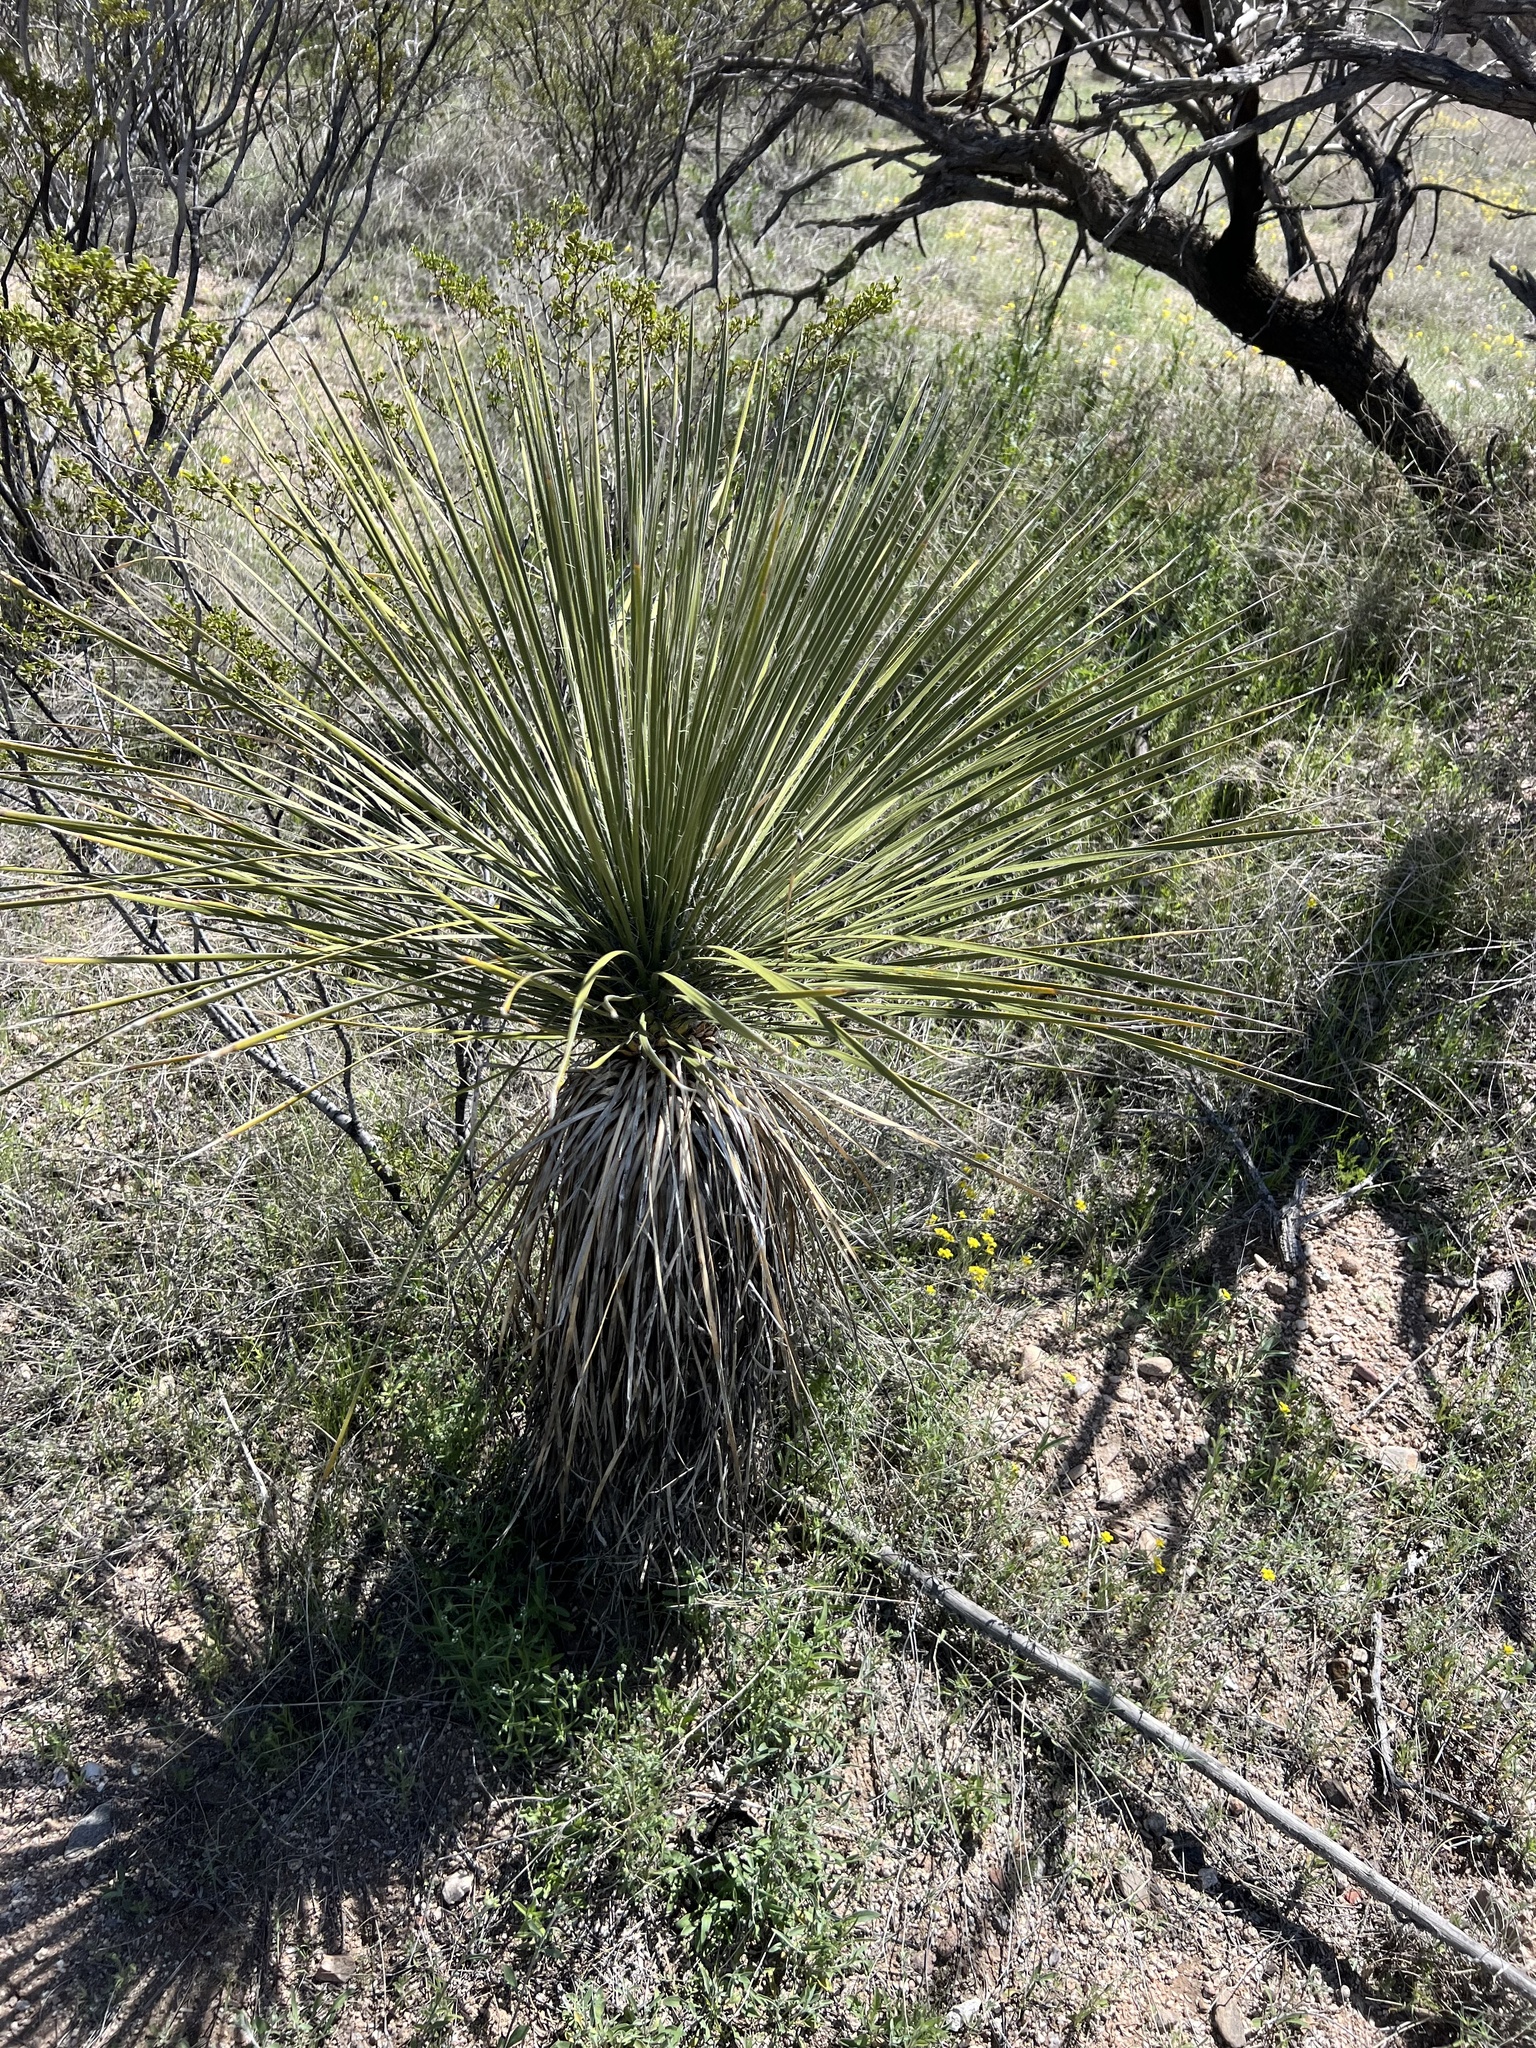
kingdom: Plantae
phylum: Tracheophyta
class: Liliopsida
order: Asparagales
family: Asparagaceae
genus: Yucca
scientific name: Yucca elata
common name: Palmella
